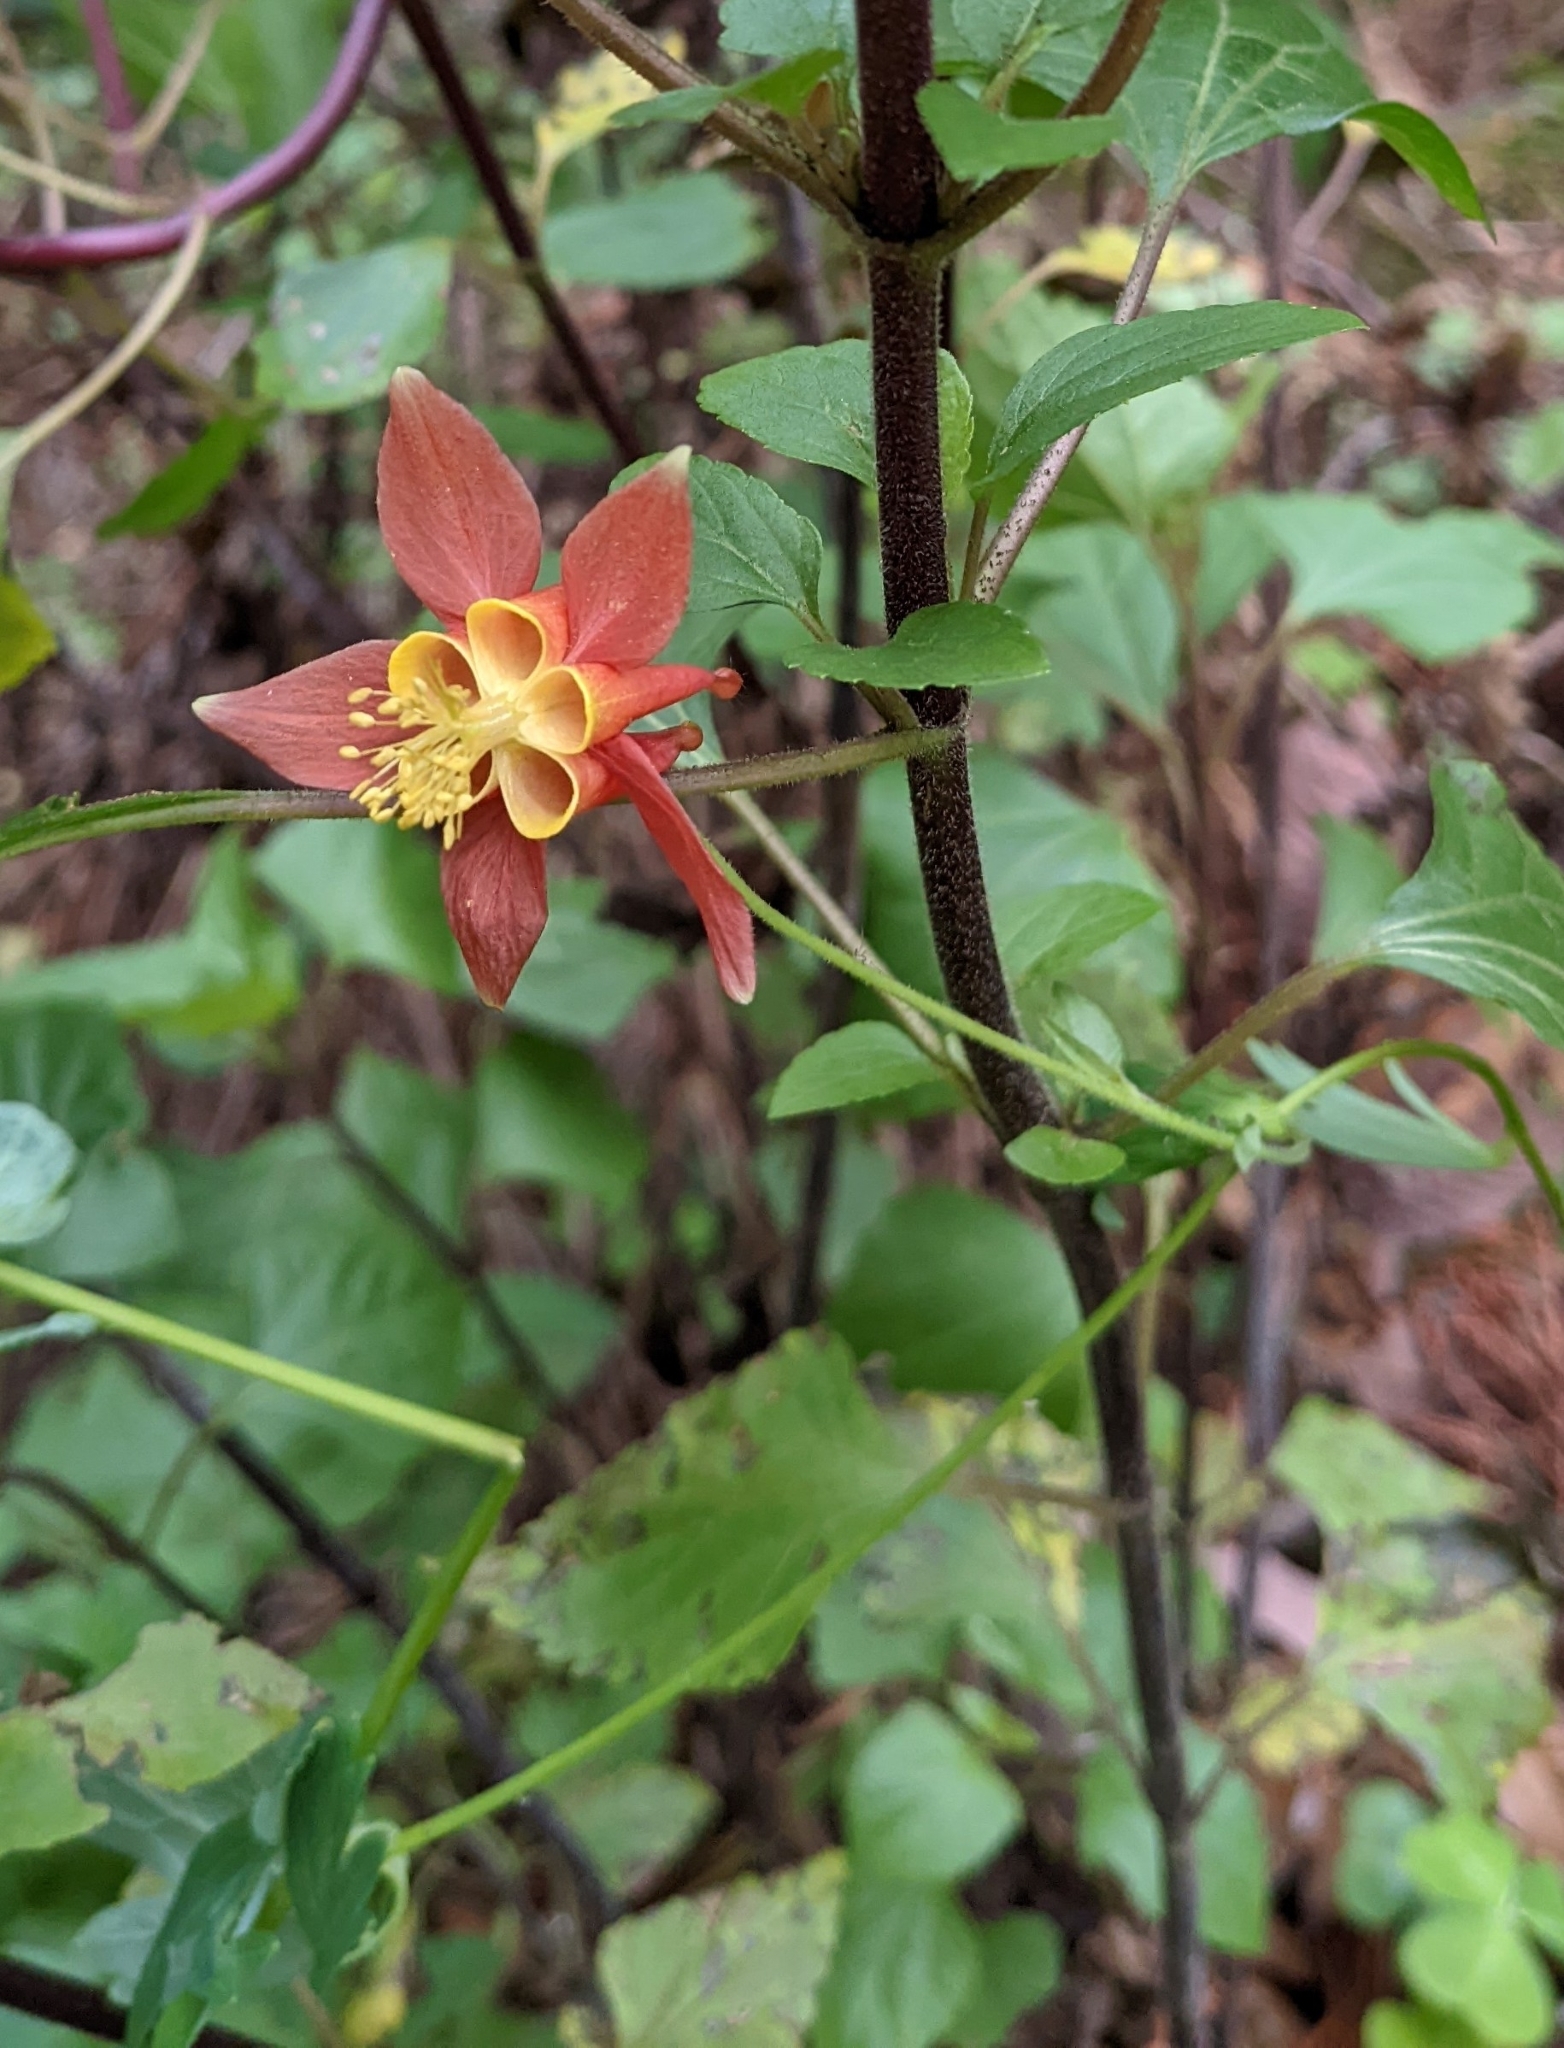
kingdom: Plantae
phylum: Tracheophyta
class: Magnoliopsida
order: Ranunculales
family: Ranunculaceae
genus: Aquilegia
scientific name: Aquilegia formosa
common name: Sitka columbine
